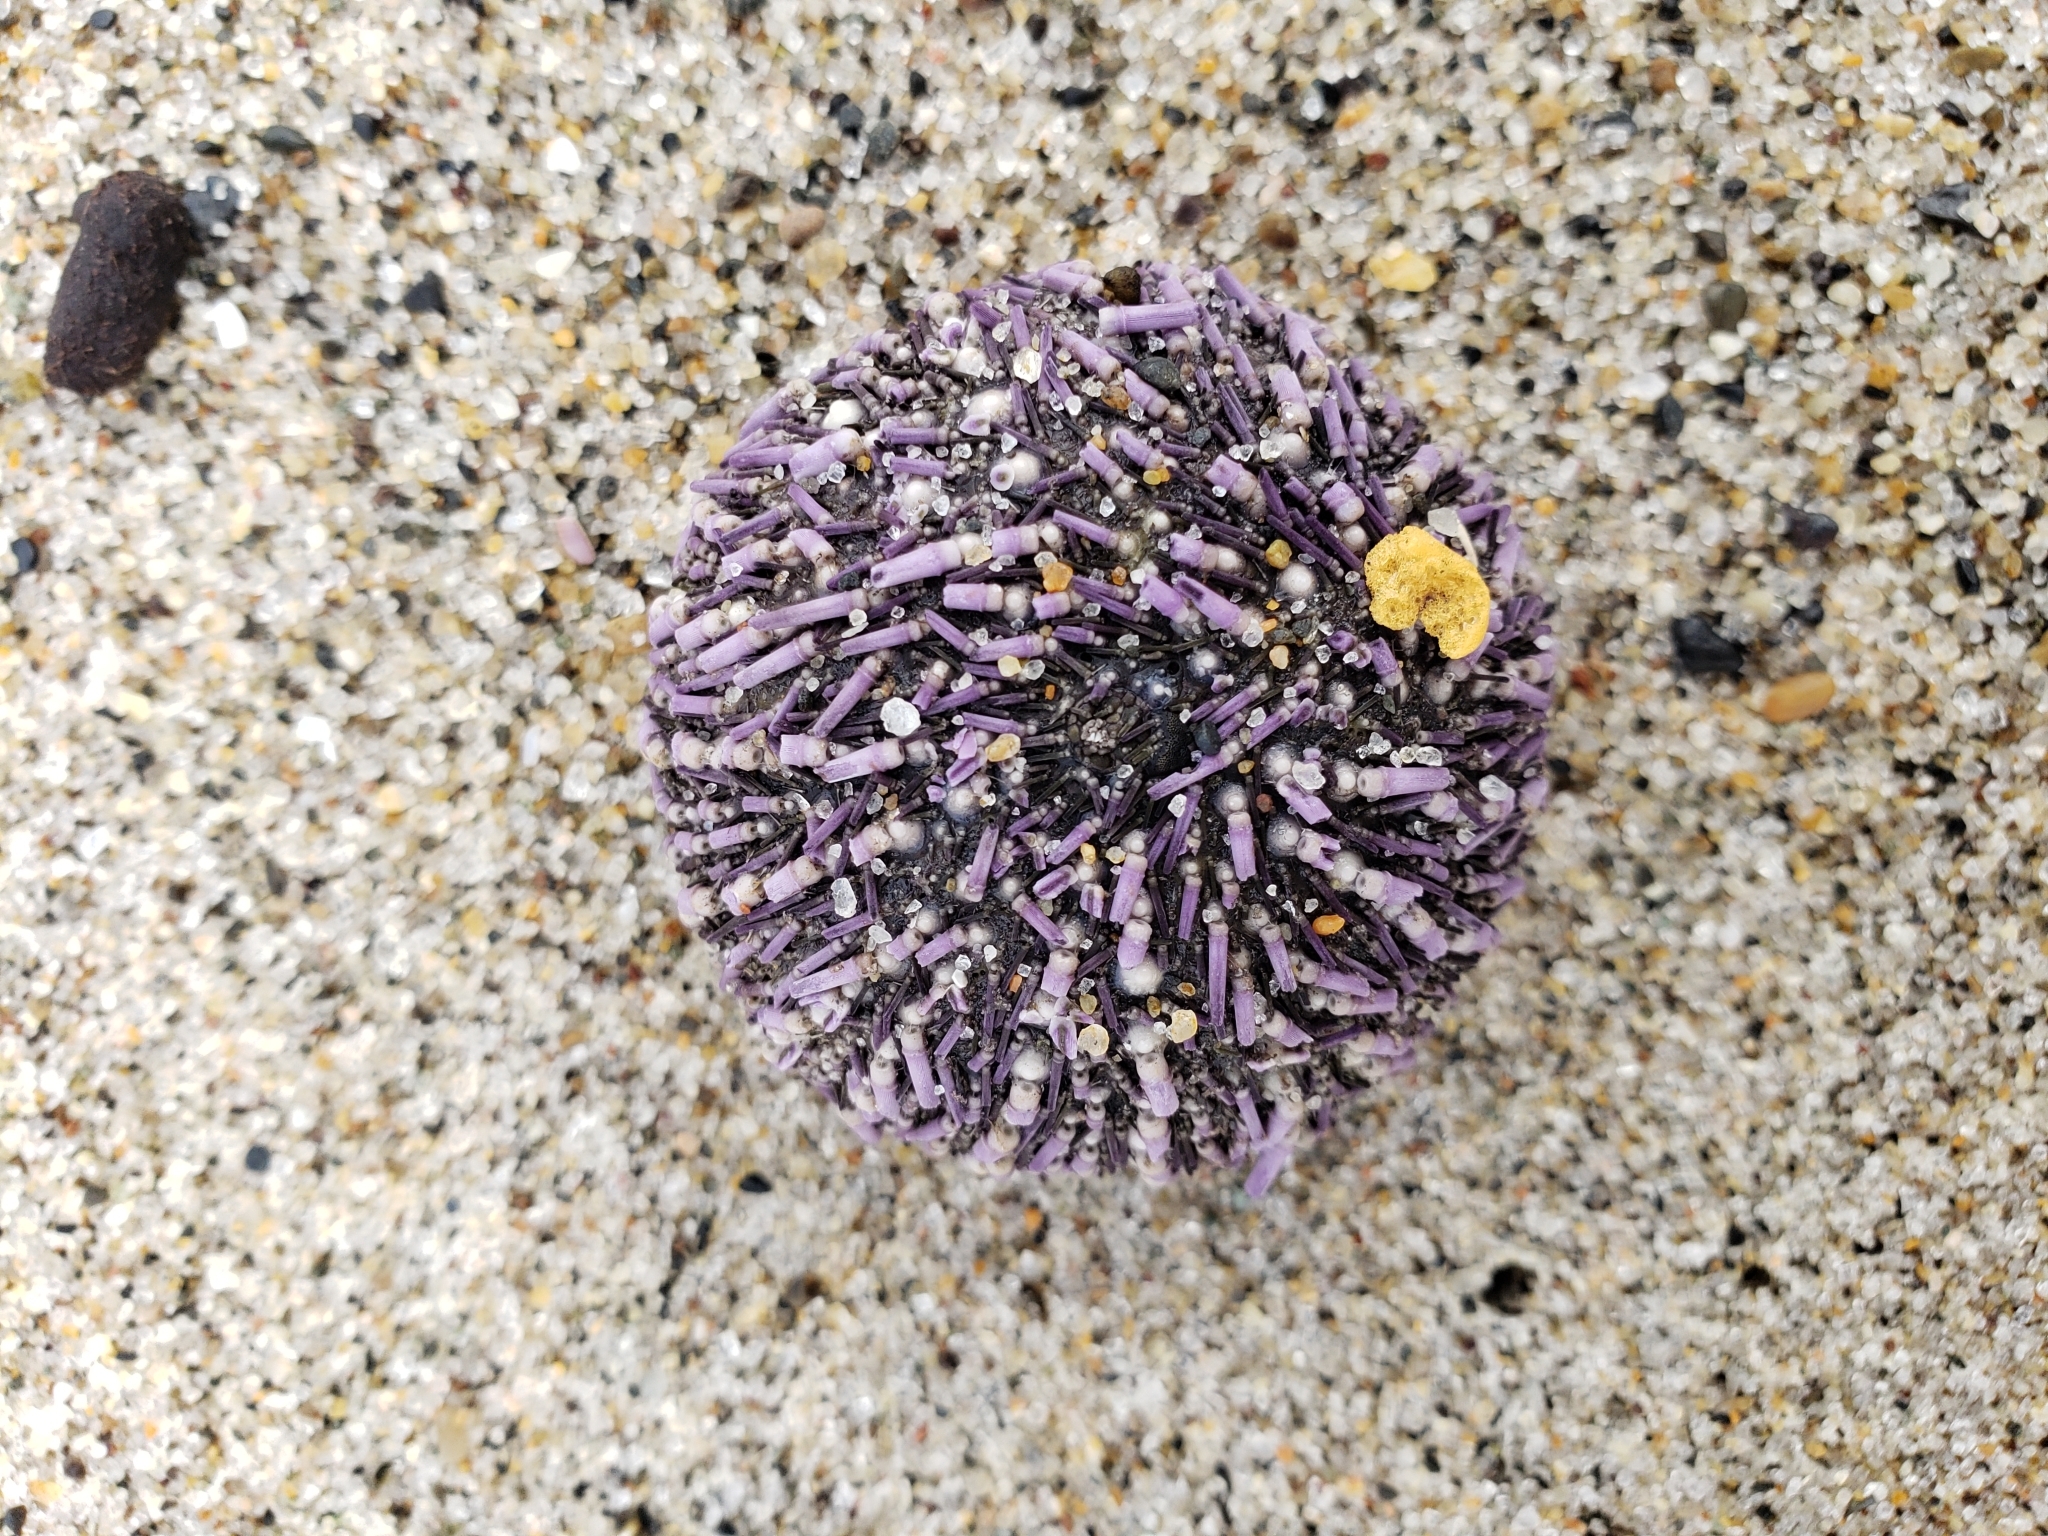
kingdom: Animalia
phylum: Echinodermata
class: Echinoidea
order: Camarodonta
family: Strongylocentrotidae
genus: Strongylocentrotus
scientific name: Strongylocentrotus purpuratus
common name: Purple sea urchin
